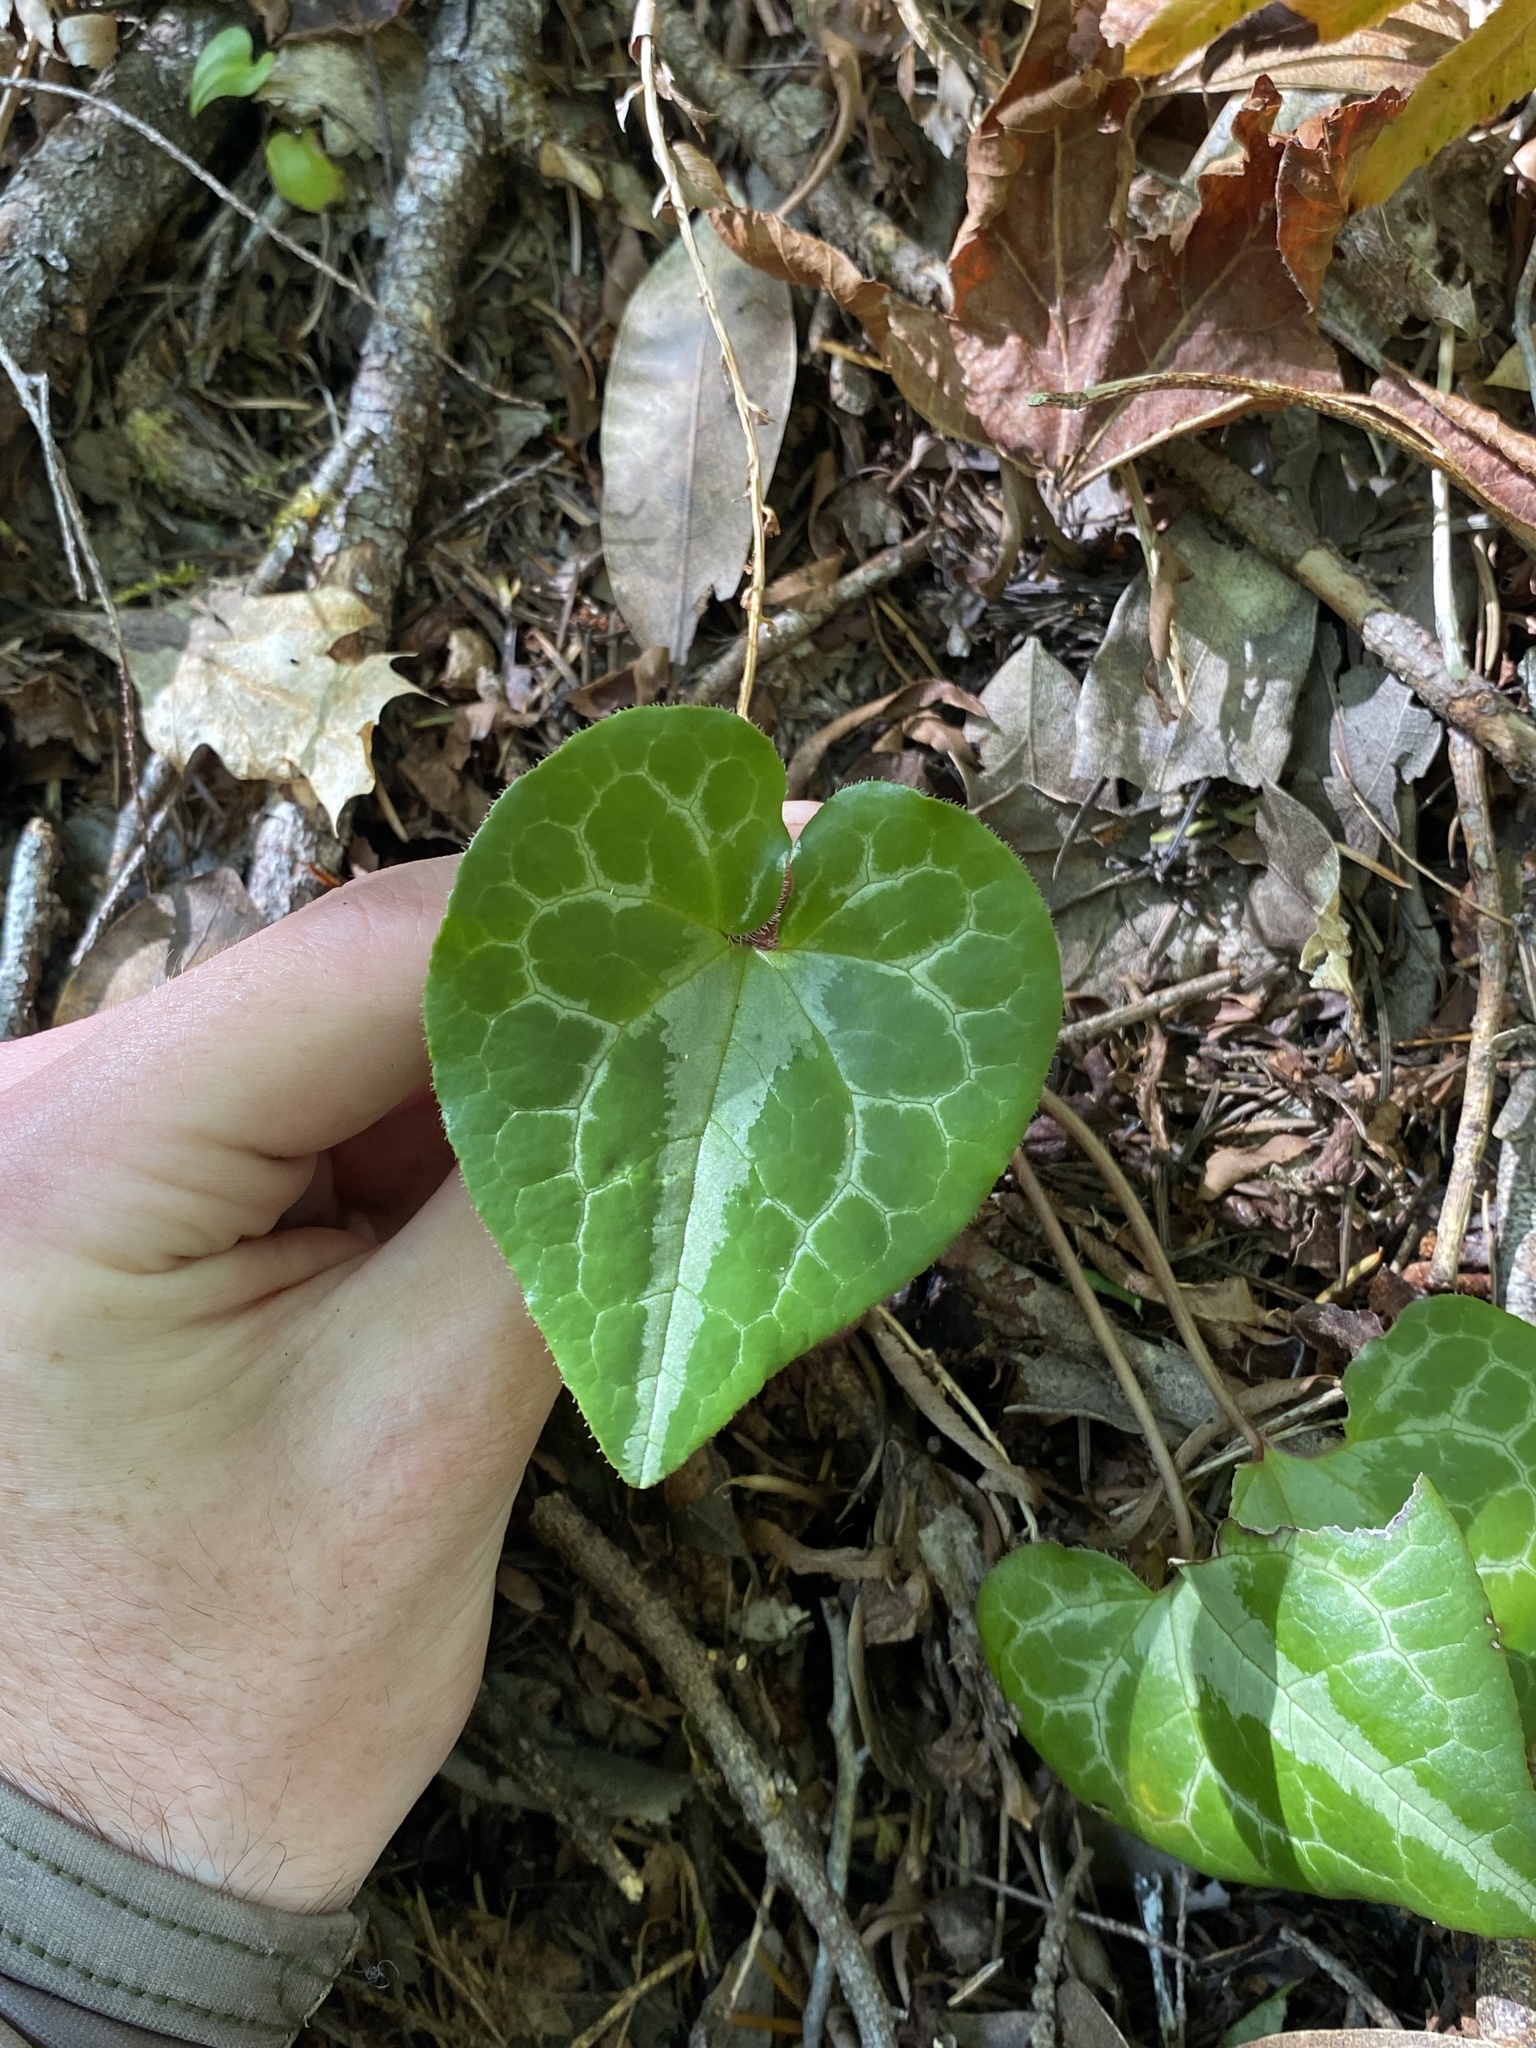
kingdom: Plantae
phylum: Tracheophyta
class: Magnoliopsida
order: Piperales
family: Aristolochiaceae
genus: Asarum
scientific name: Asarum marmoratum
